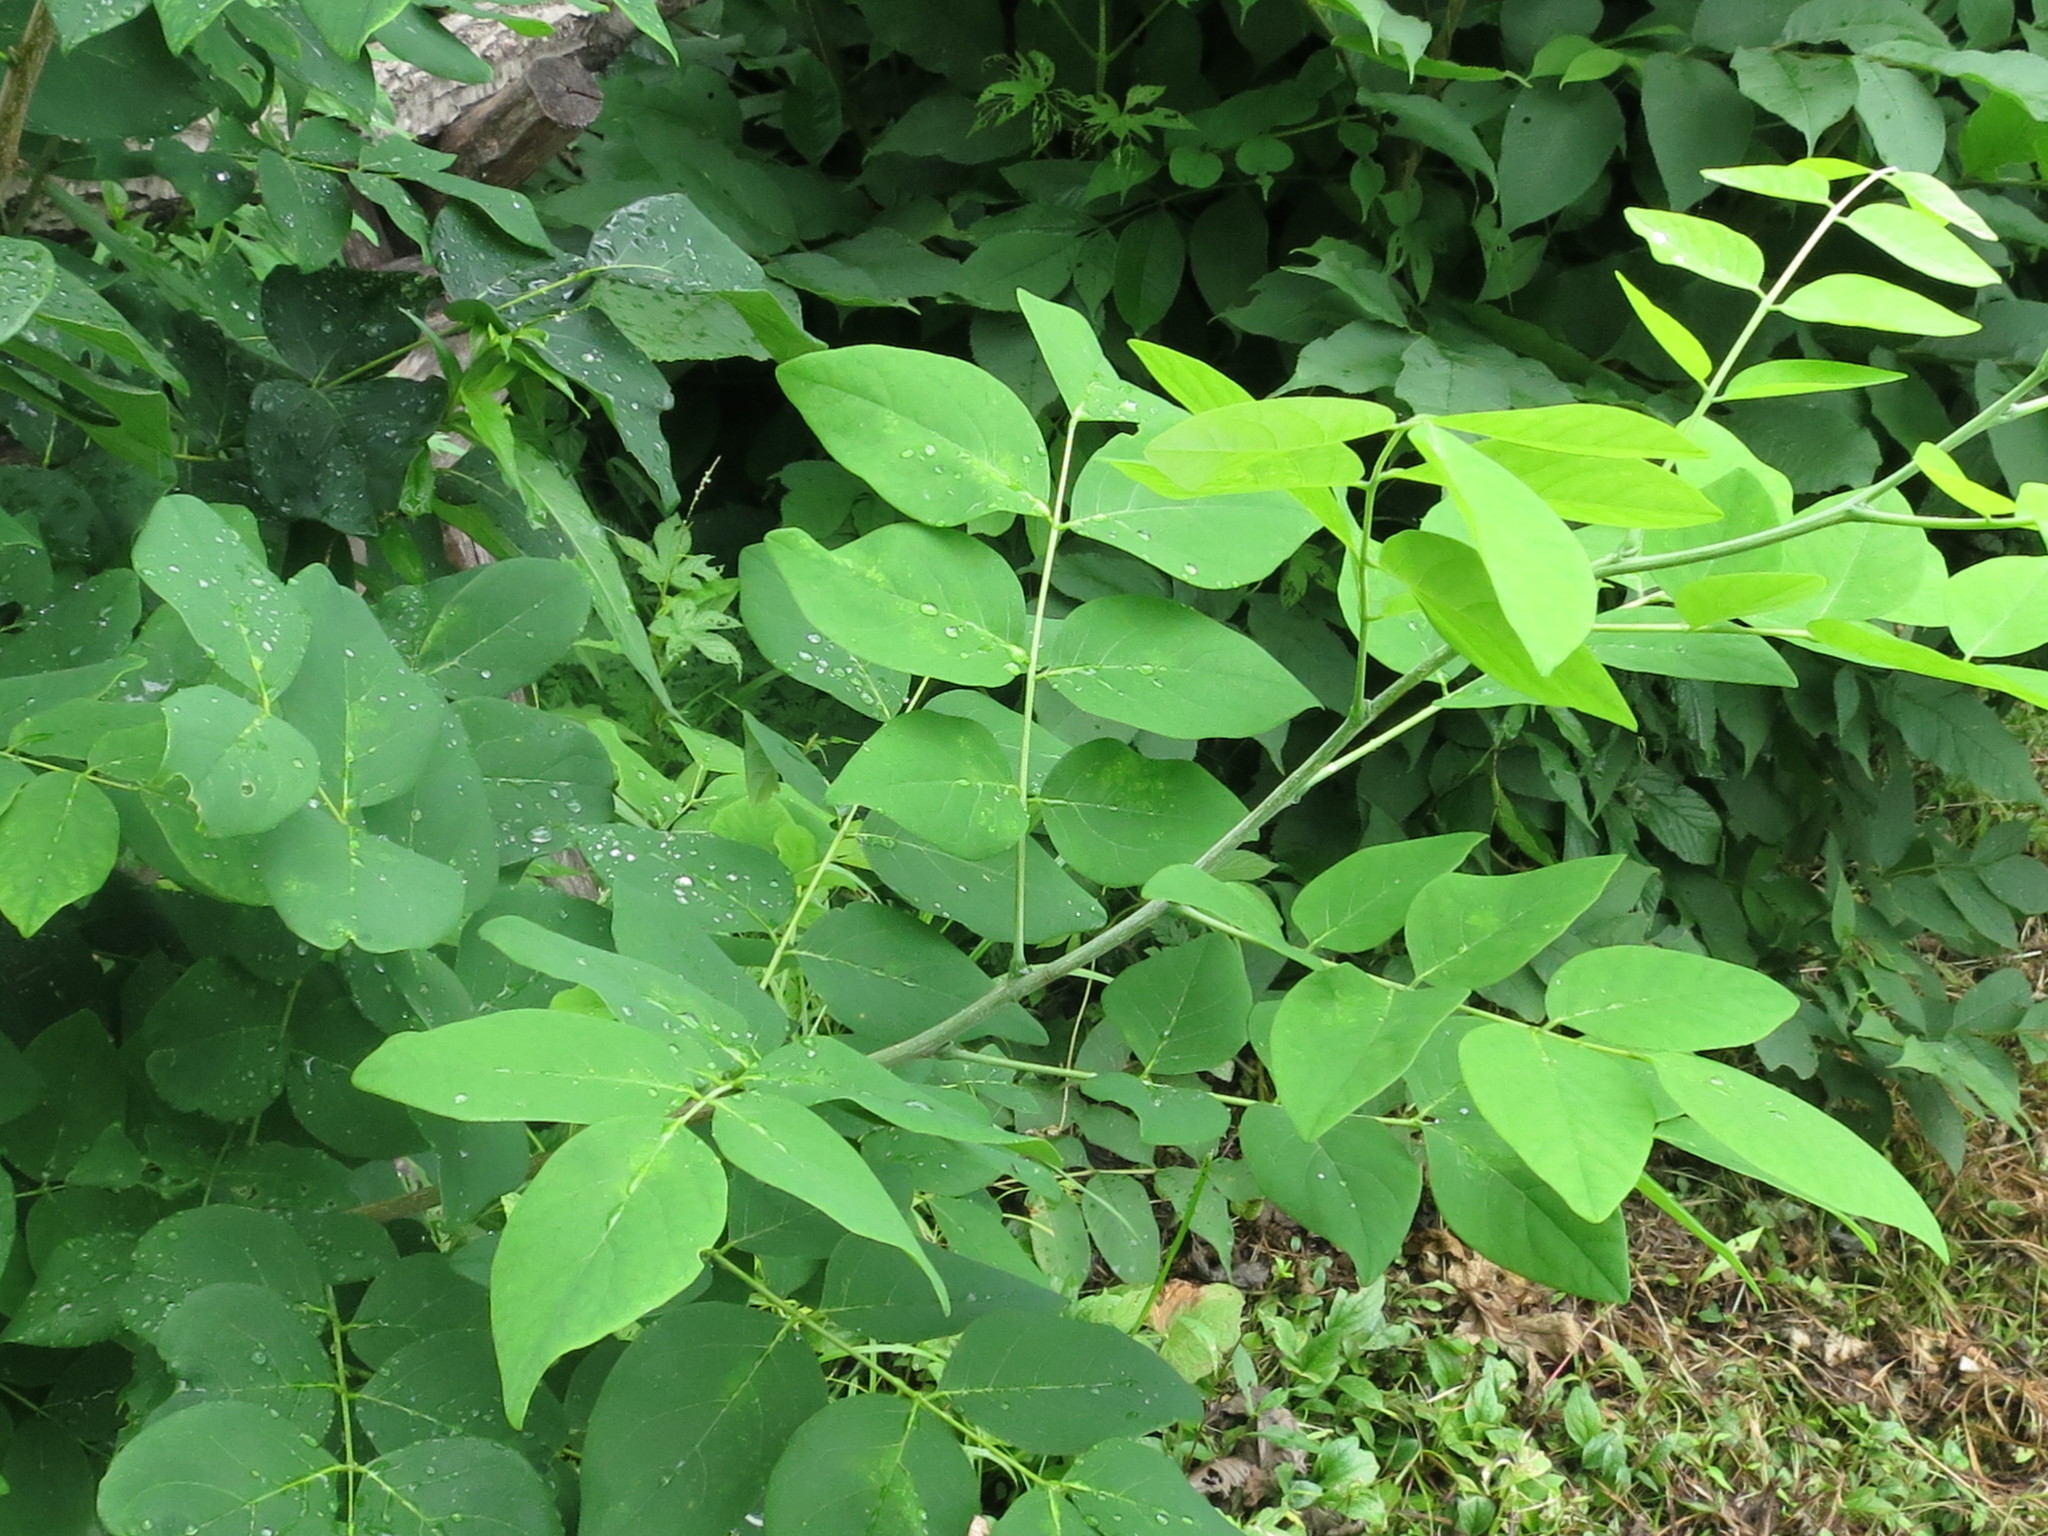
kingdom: Plantae
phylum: Tracheophyta
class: Magnoliopsida
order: Fabales
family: Fabaceae
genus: Maackia
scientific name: Maackia amurensis
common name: Amur maackia
